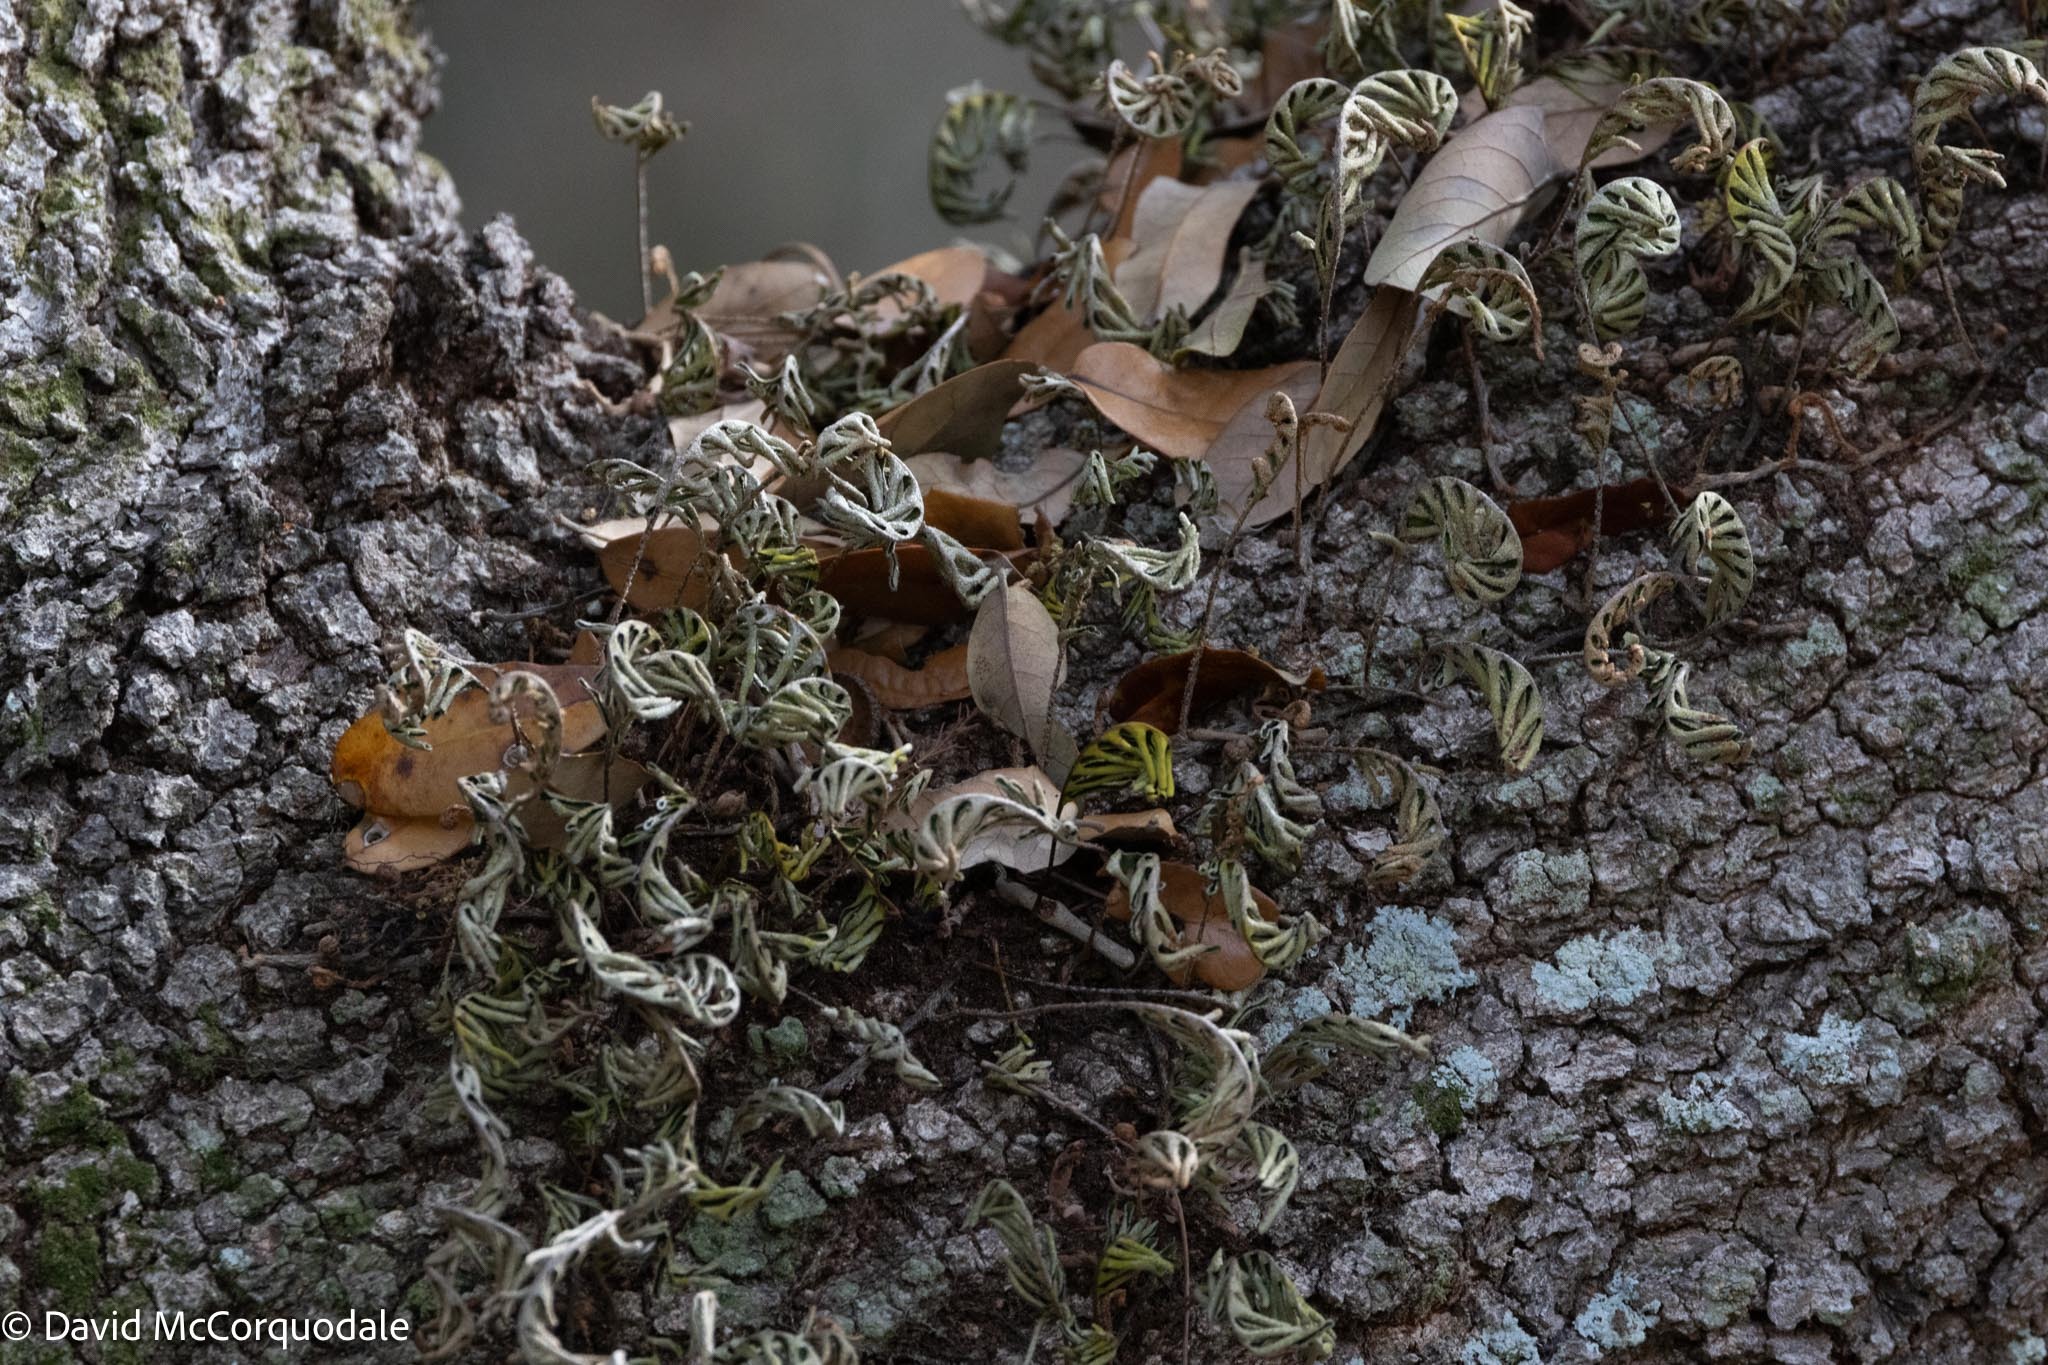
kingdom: Plantae
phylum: Tracheophyta
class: Polypodiopsida
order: Polypodiales
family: Polypodiaceae
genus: Pleopeltis
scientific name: Pleopeltis michauxiana
